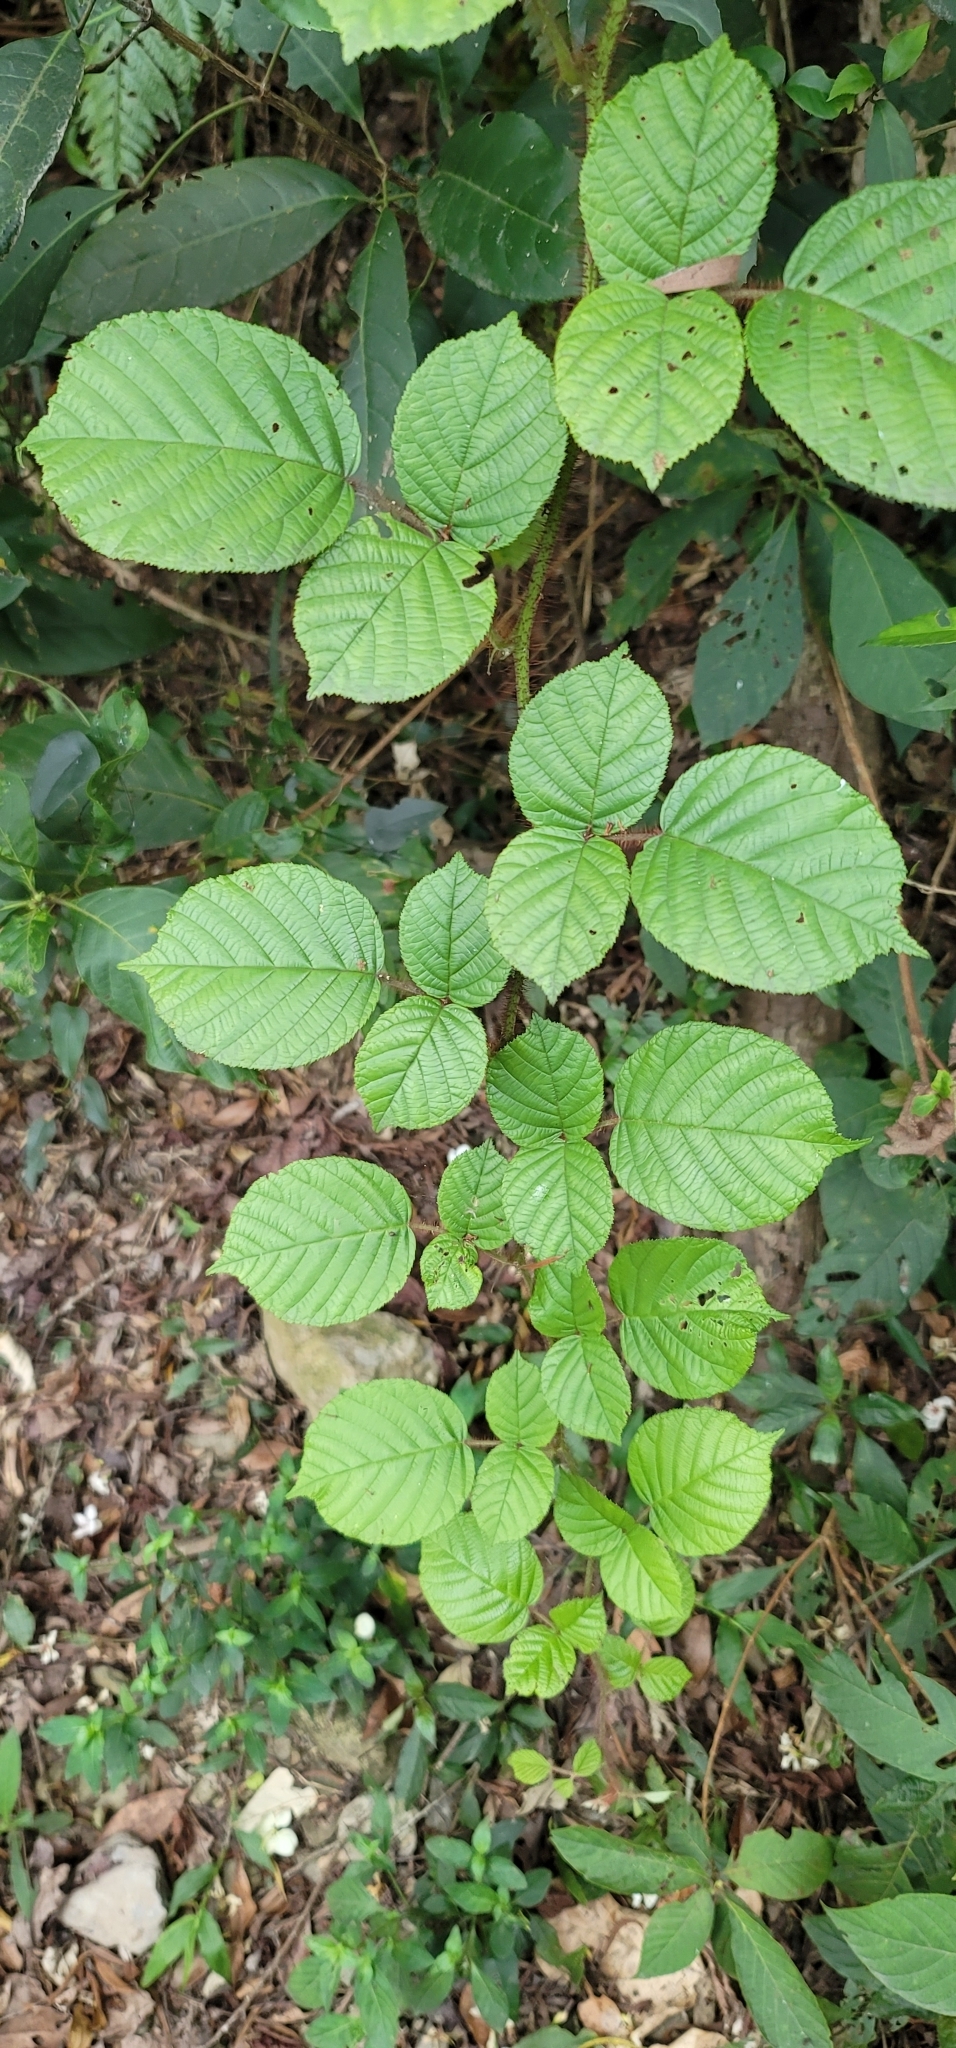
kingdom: Plantae
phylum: Tracheophyta
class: Magnoliopsida
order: Rosales
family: Rosaceae
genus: Rubus
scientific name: Rubus ellipticus
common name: Cheeseberry
